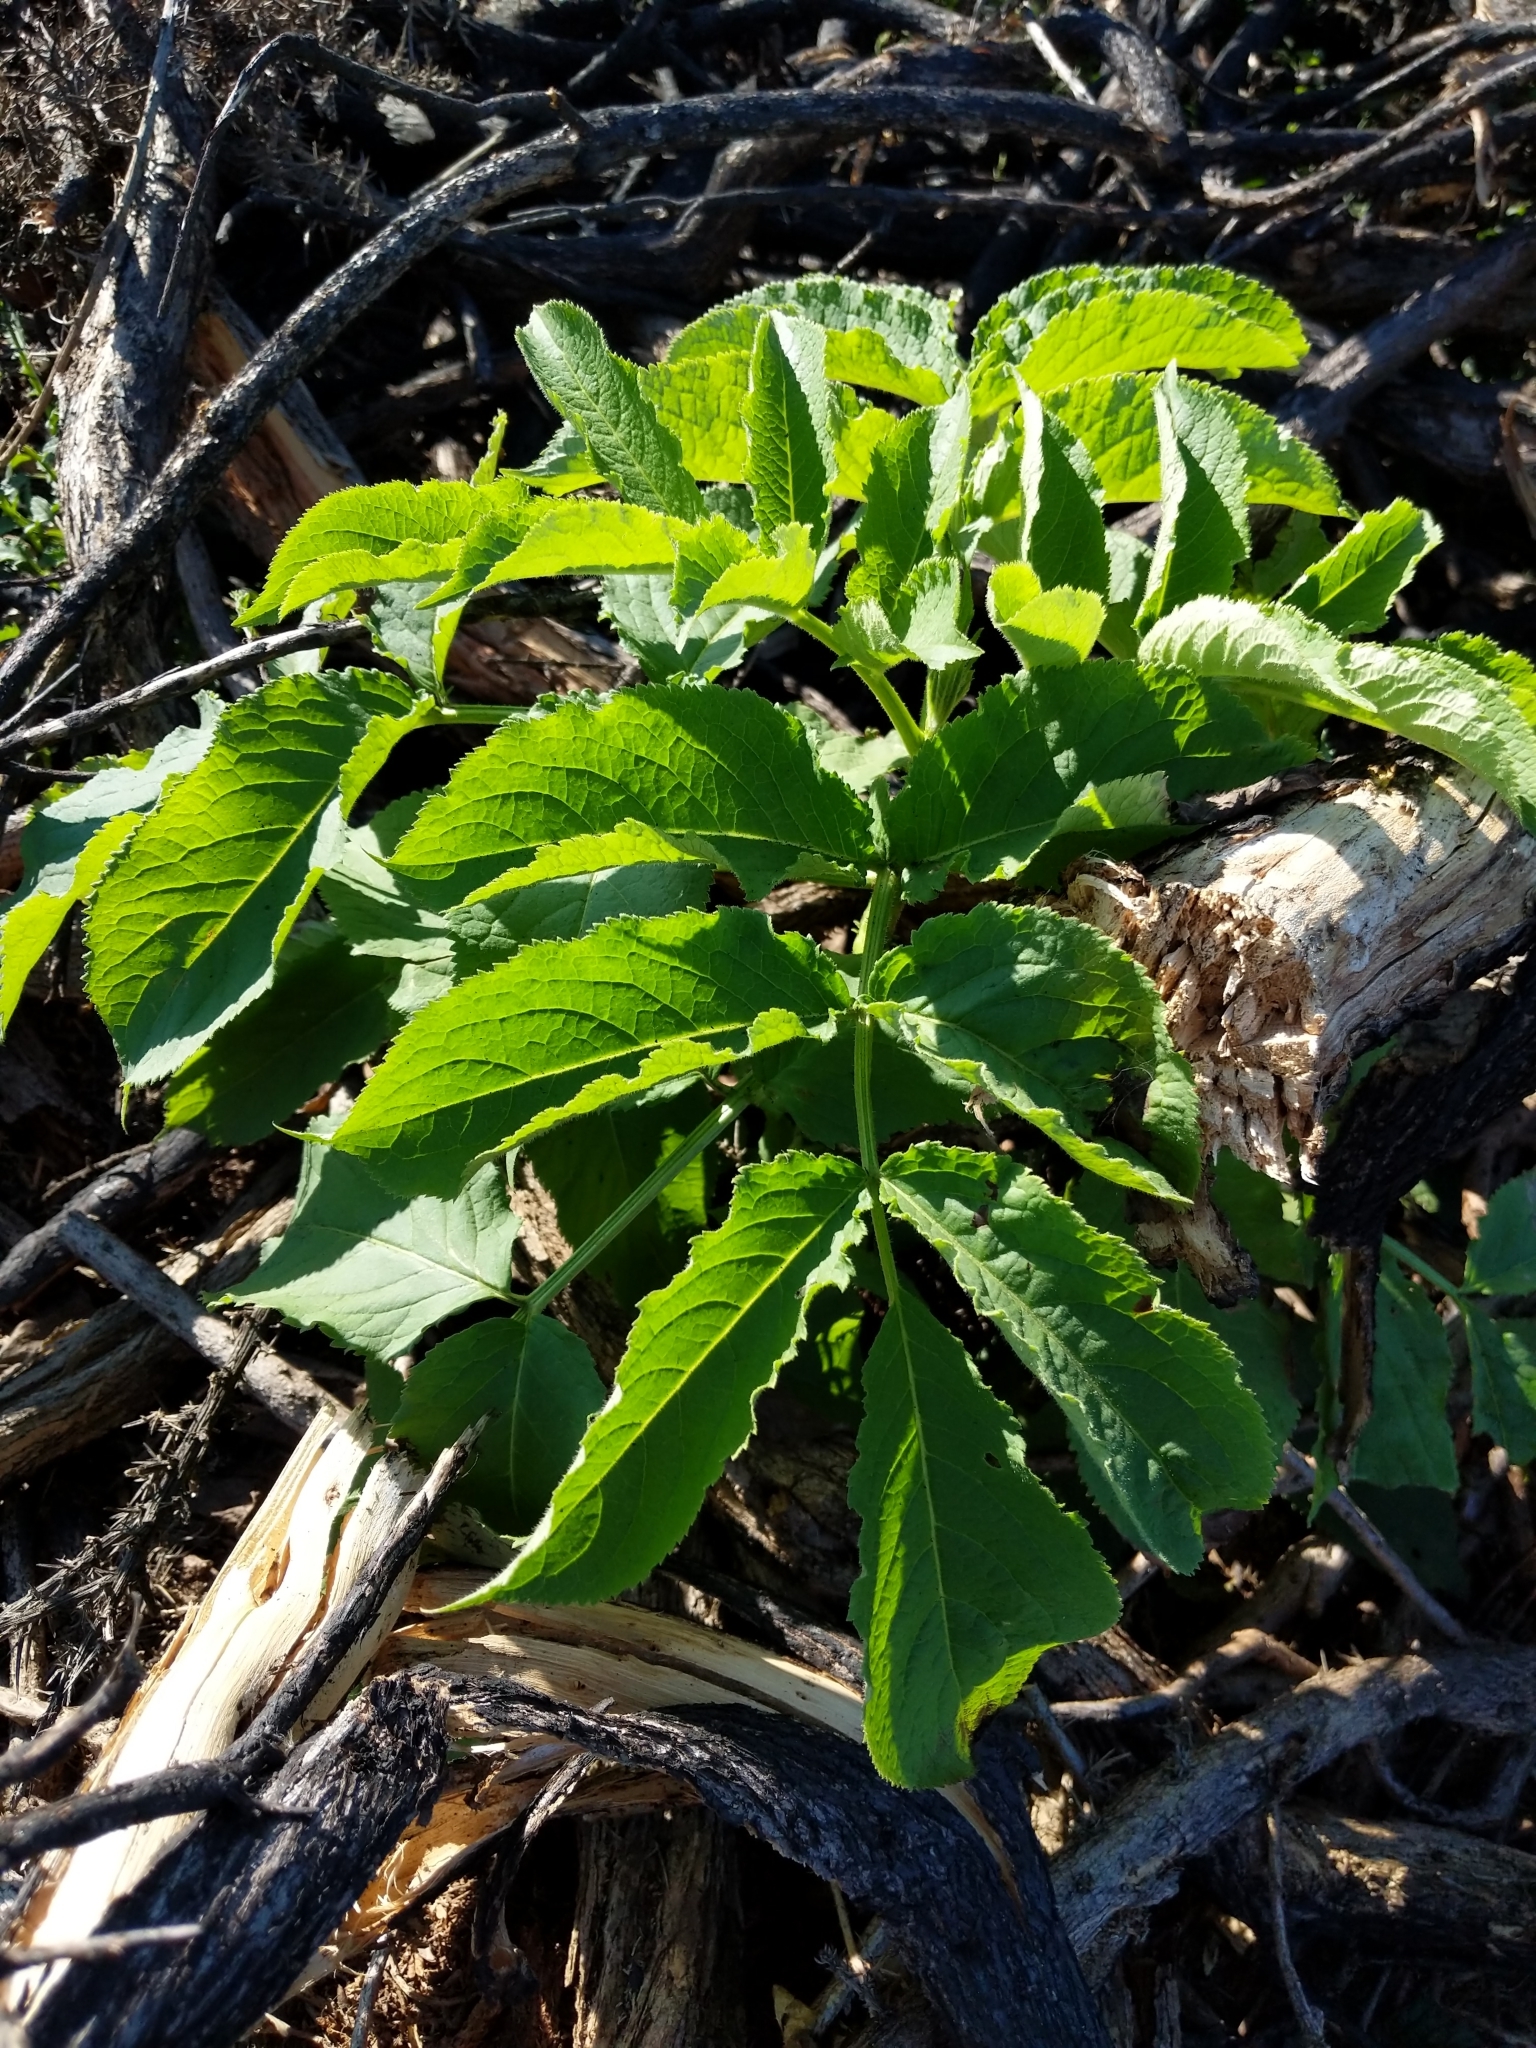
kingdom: Plantae
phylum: Tracheophyta
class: Magnoliopsida
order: Dipsacales
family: Viburnaceae
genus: Sambucus
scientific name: Sambucus racemosa
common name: Red-berried elder
